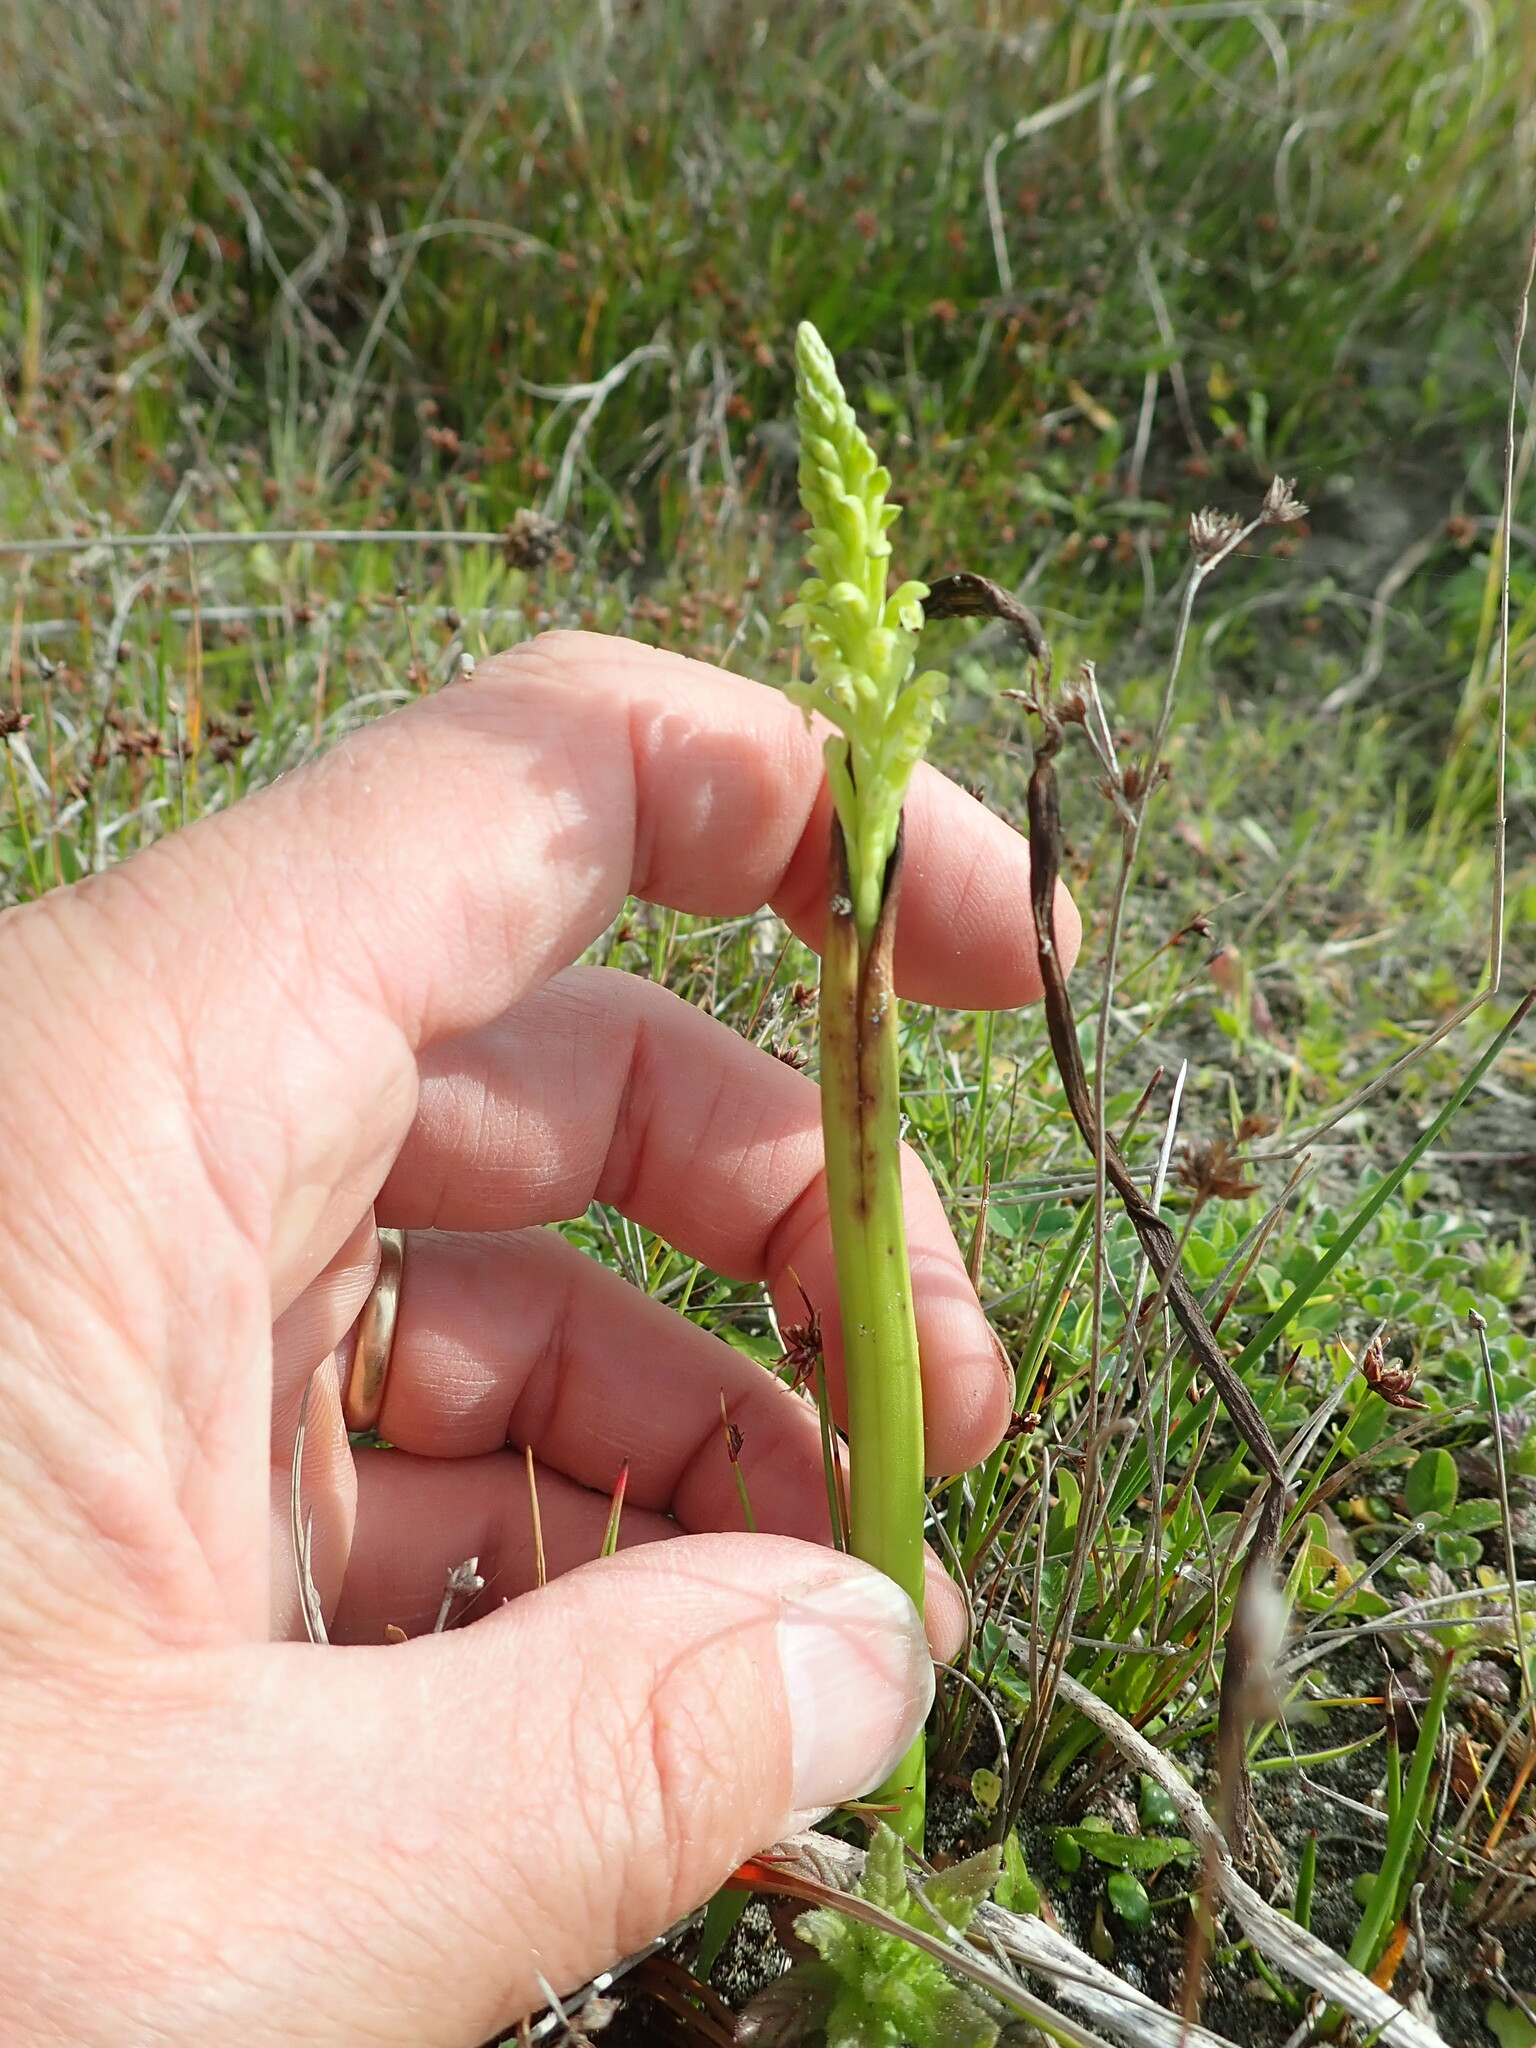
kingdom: Plantae
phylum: Tracheophyta
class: Liliopsida
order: Asparagales
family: Orchidaceae
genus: Microtis
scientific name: Microtis unifolia
